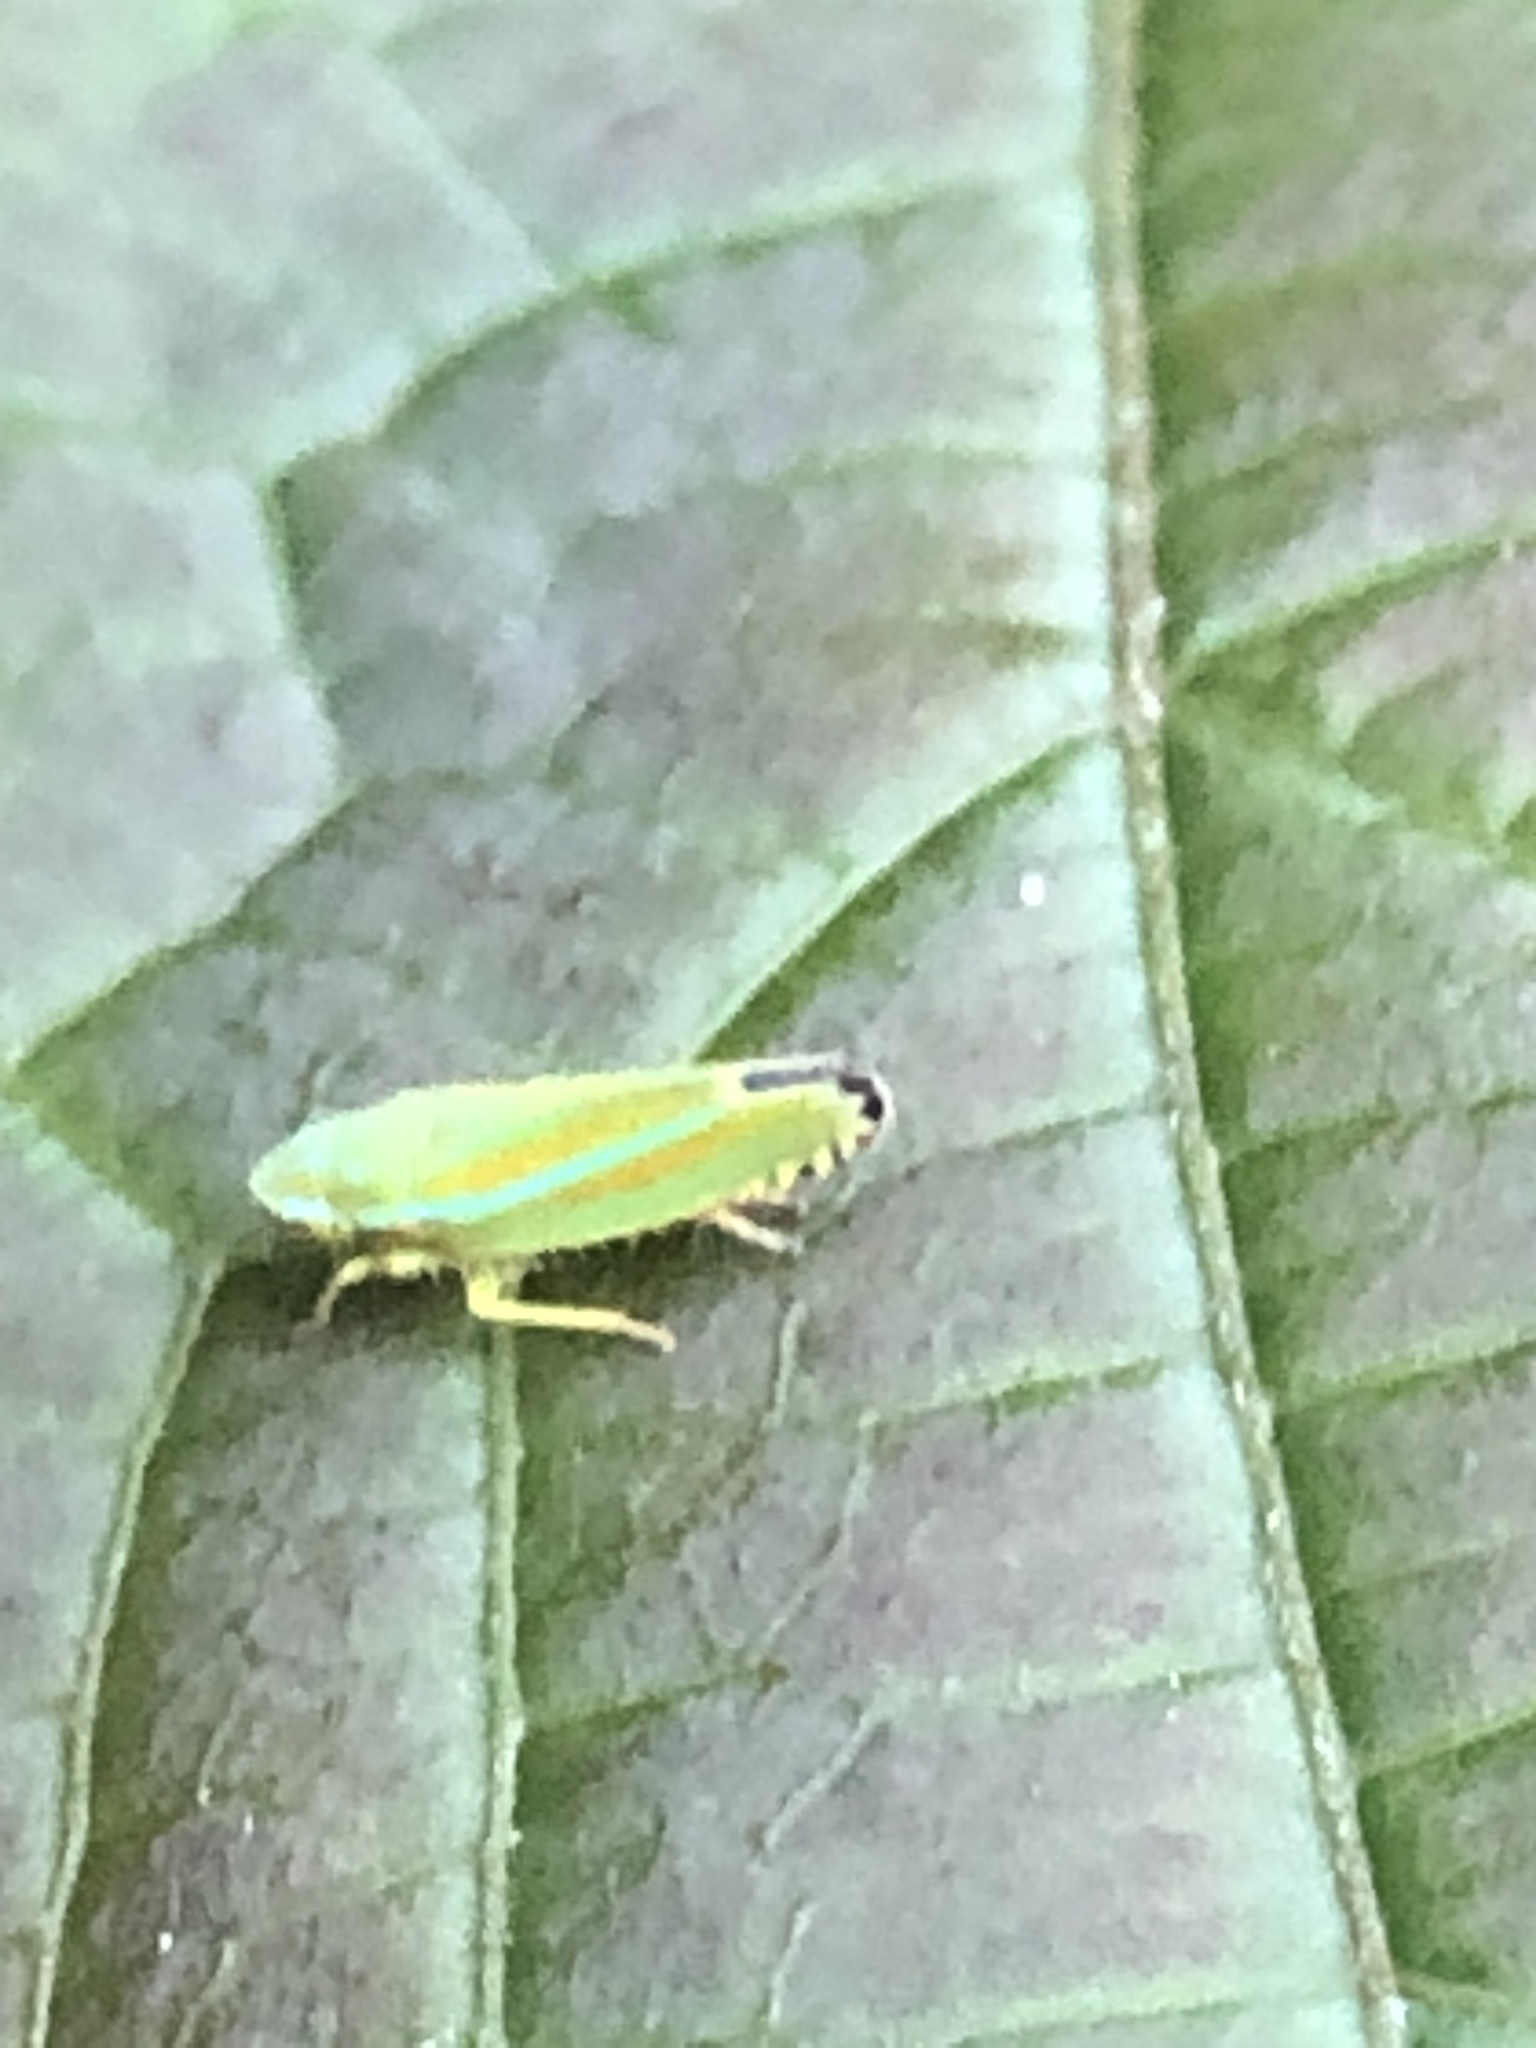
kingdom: Animalia
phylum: Arthropoda
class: Insecta
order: Hemiptera
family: Cicadellidae
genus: Graphocephala
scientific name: Graphocephala versuta
